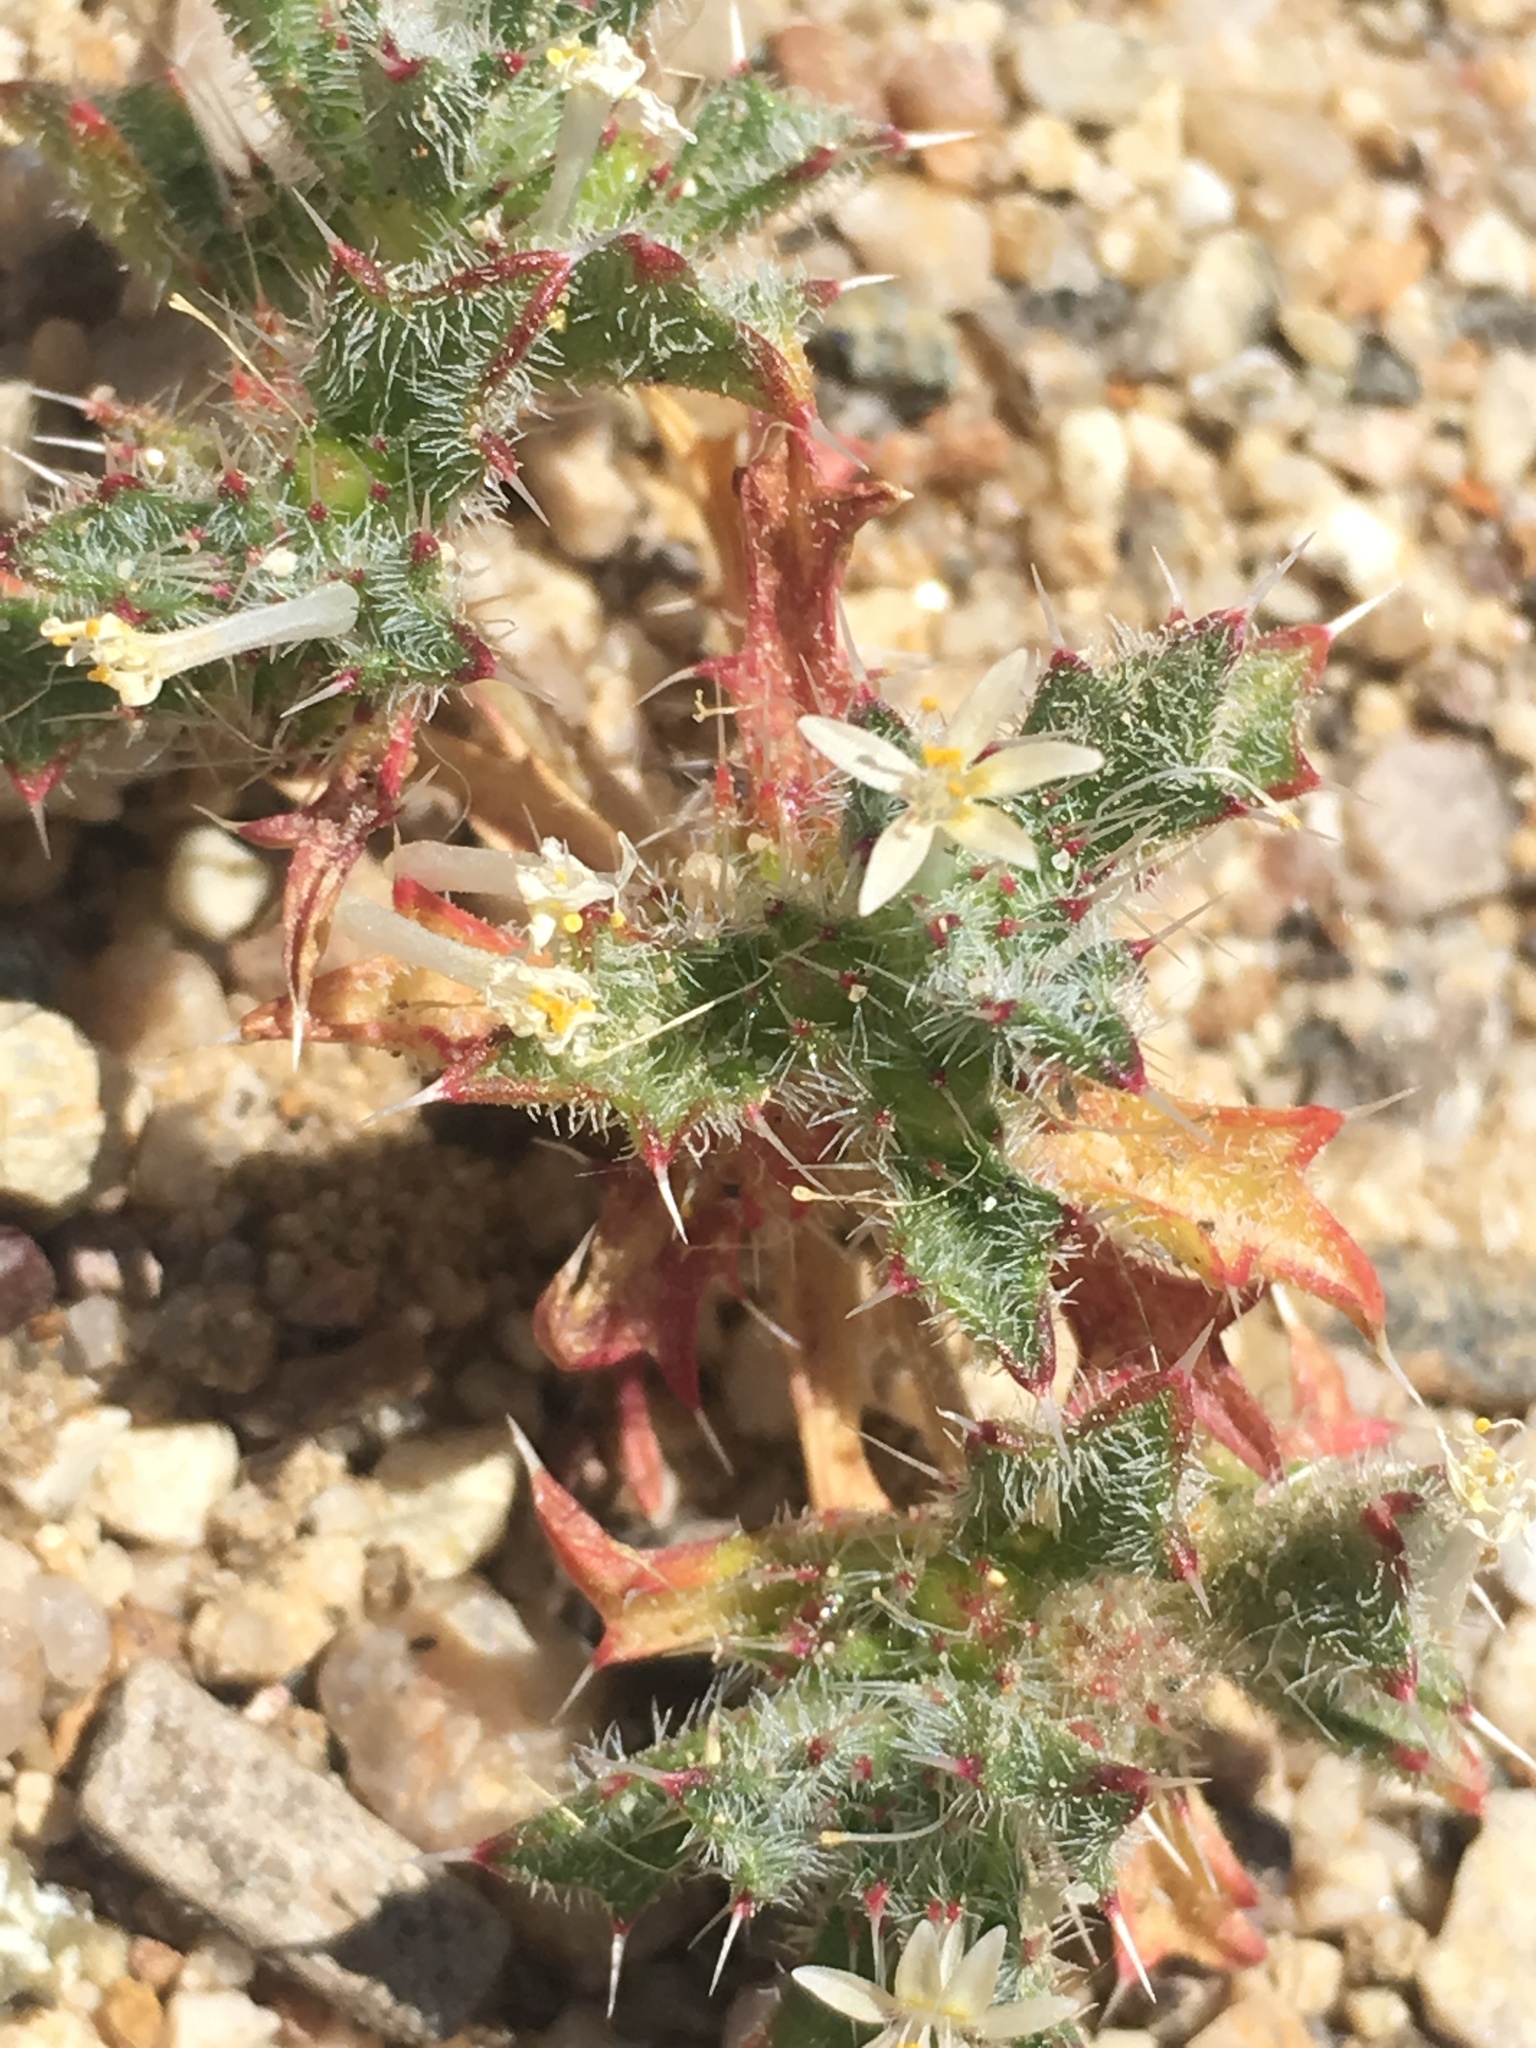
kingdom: Plantae
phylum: Tracheophyta
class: Magnoliopsida
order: Ericales
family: Polemoniaceae
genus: Loeseliastrum
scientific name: Loeseliastrum schottii
